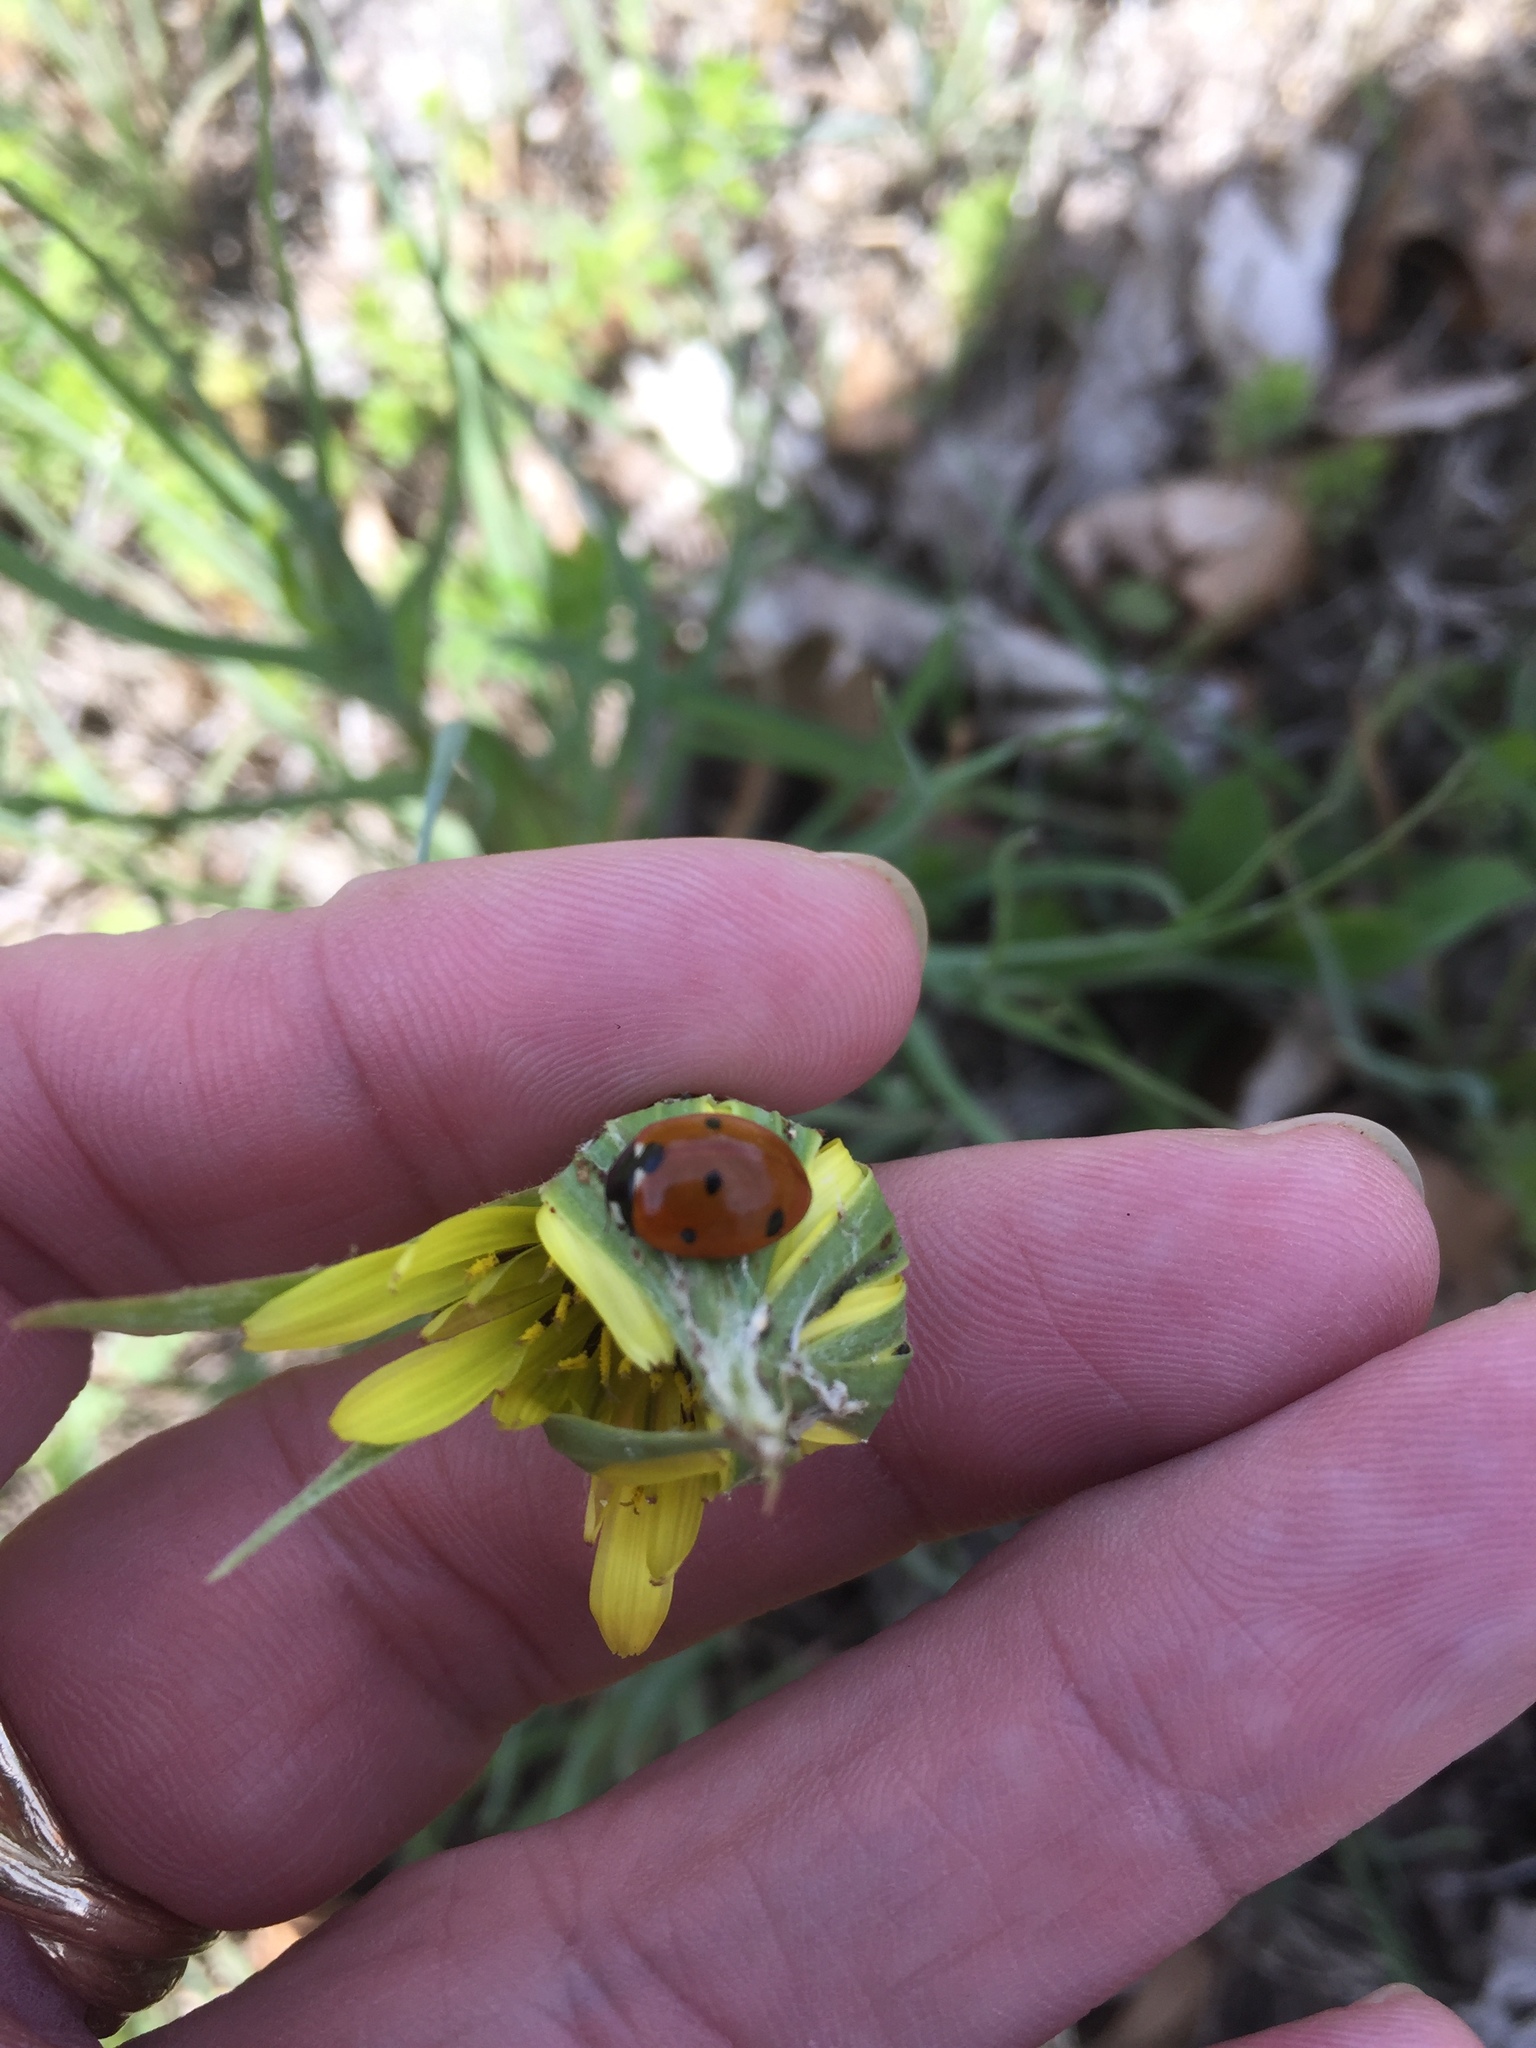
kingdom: Animalia
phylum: Arthropoda
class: Insecta
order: Coleoptera
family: Coccinellidae
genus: Coccinella
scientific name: Coccinella septempunctata
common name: Sevenspotted lady beetle
